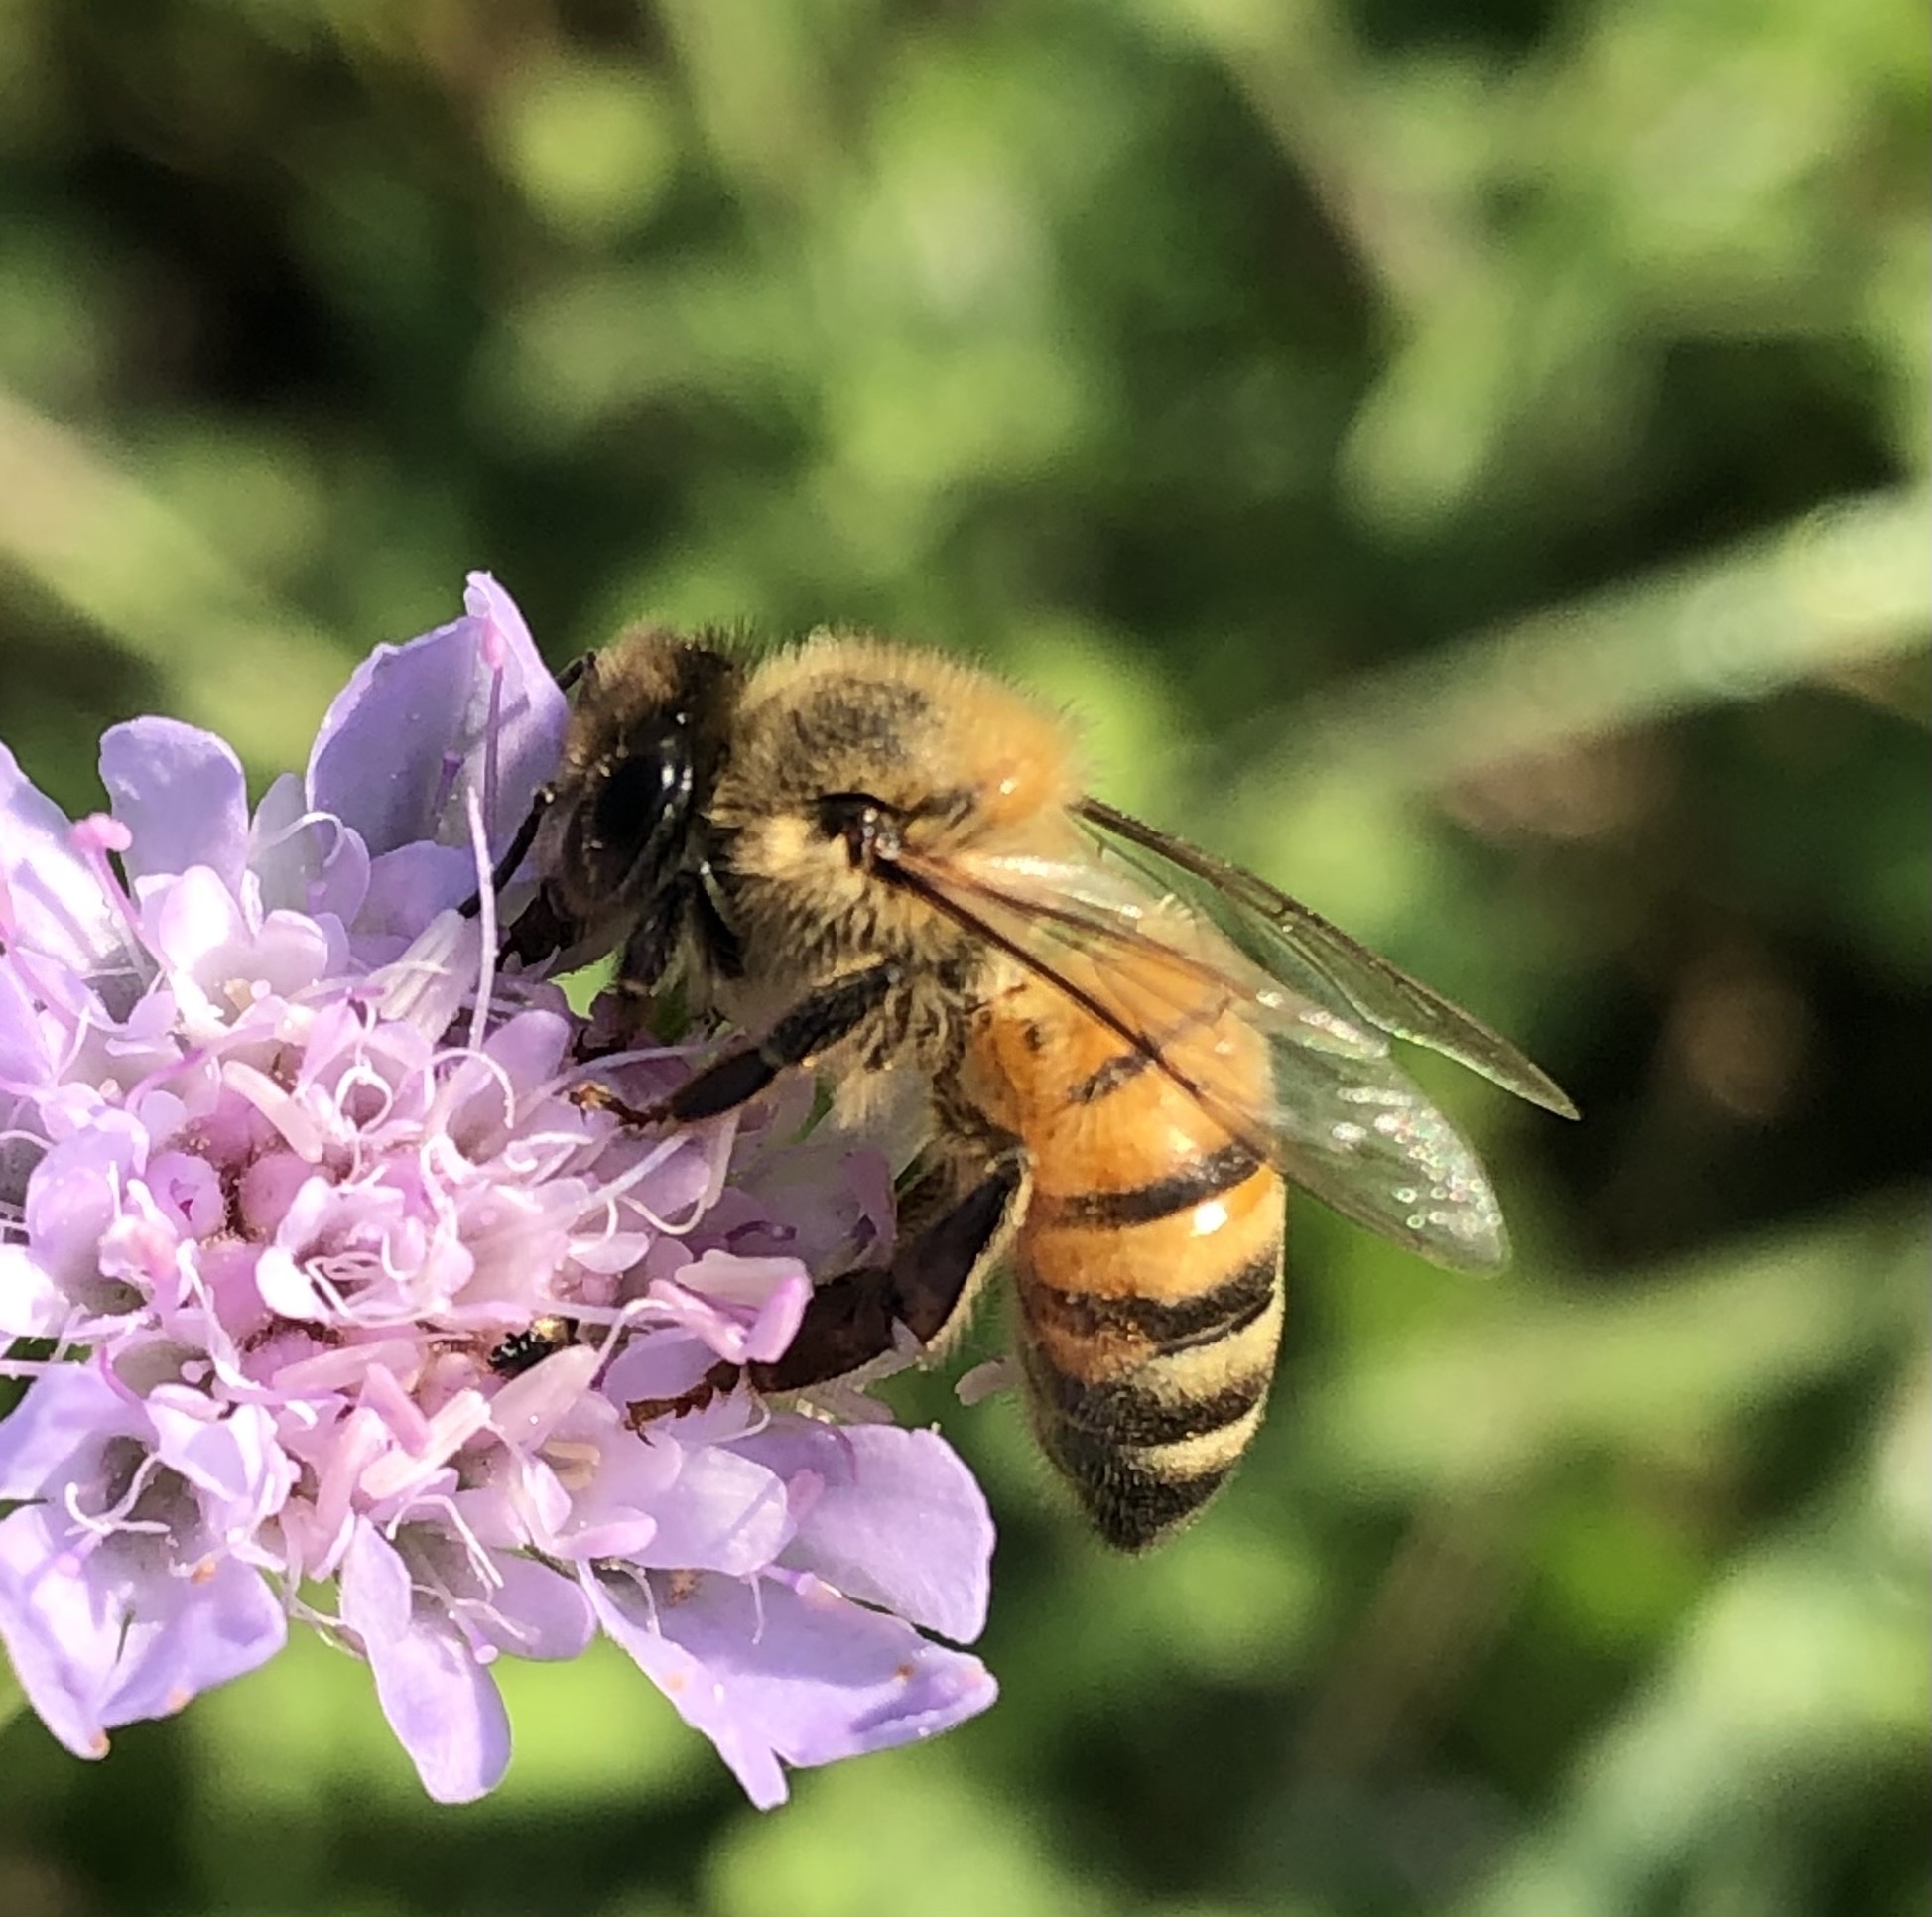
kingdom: Animalia
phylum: Arthropoda
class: Insecta
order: Hymenoptera
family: Apidae
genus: Apis
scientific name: Apis mellifera
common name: Honey bee
